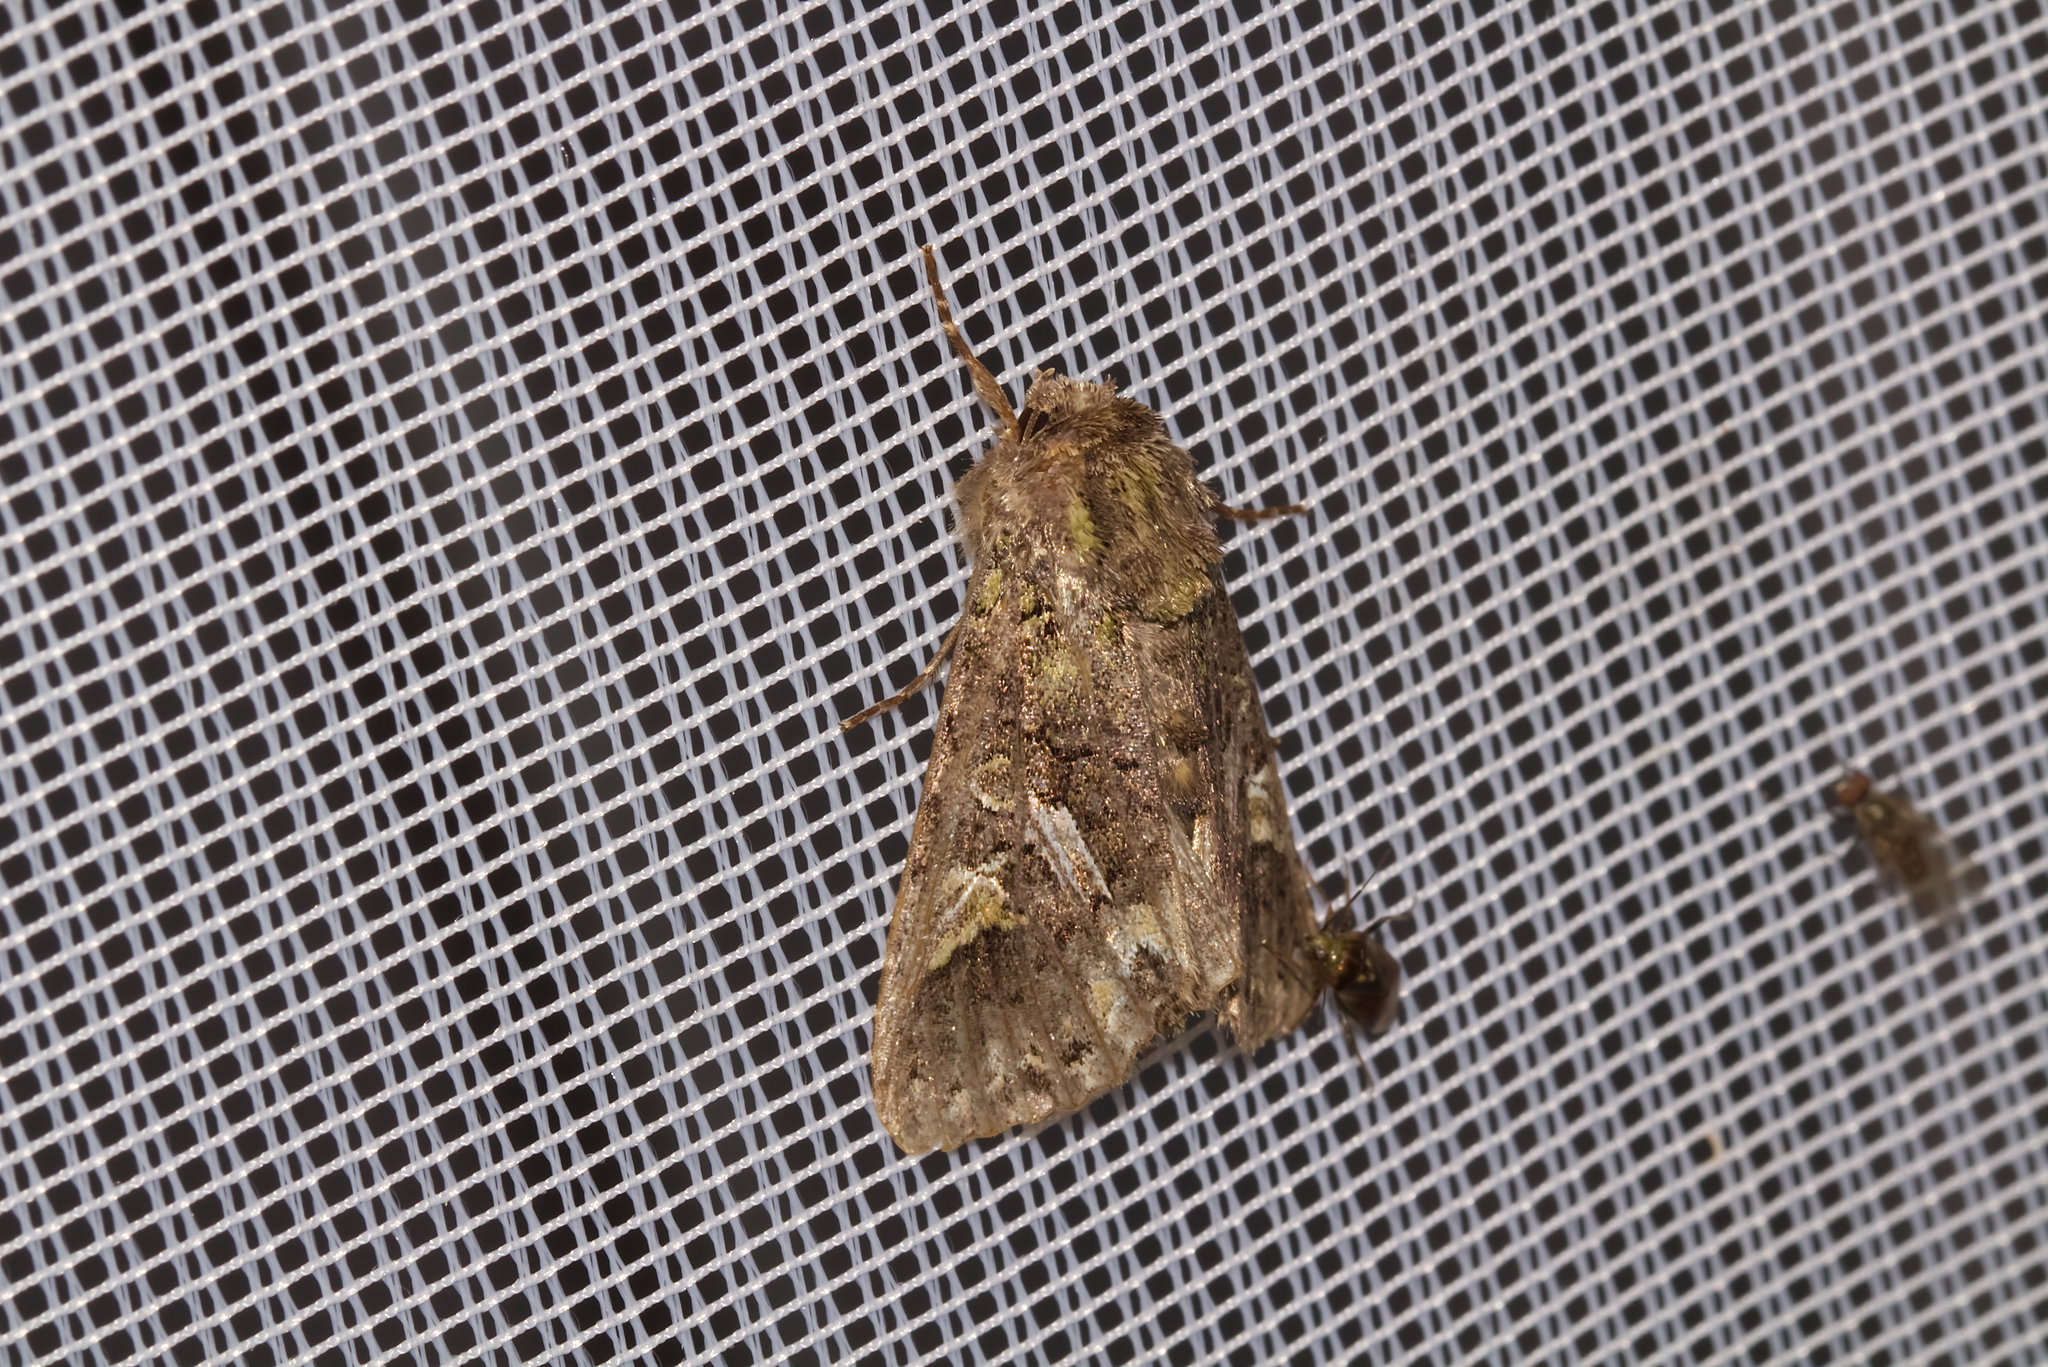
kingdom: Animalia
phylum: Arthropoda
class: Insecta
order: Lepidoptera
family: Noctuidae
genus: Trachea
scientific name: Trachea atriplicis
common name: Orache moth
